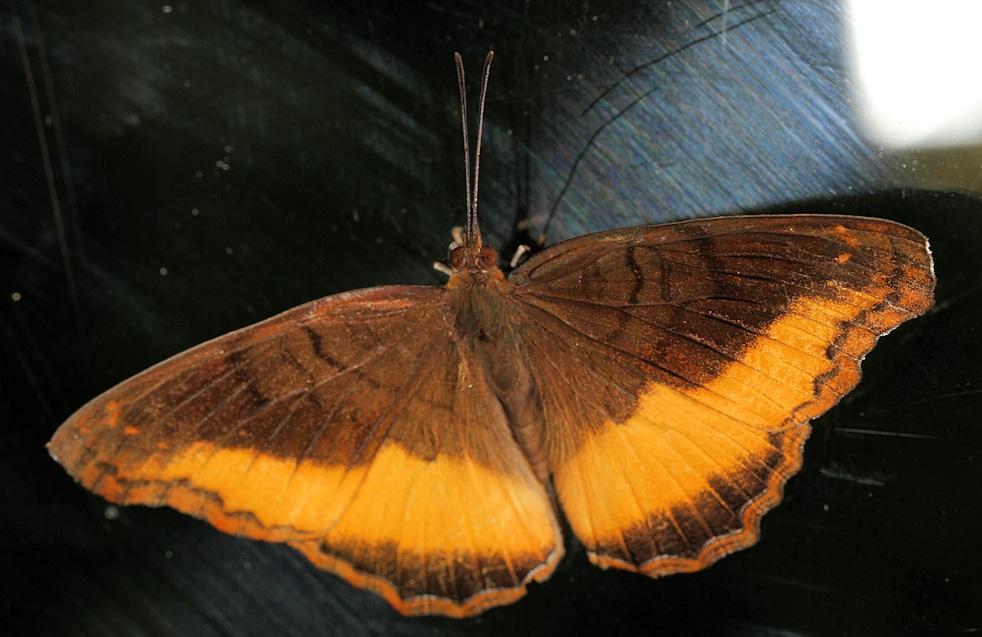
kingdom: Animalia
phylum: Arthropoda
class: Insecta
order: Lepidoptera
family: Nymphalidae
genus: Eurytela
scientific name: Eurytela dryope
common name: Golden piper
